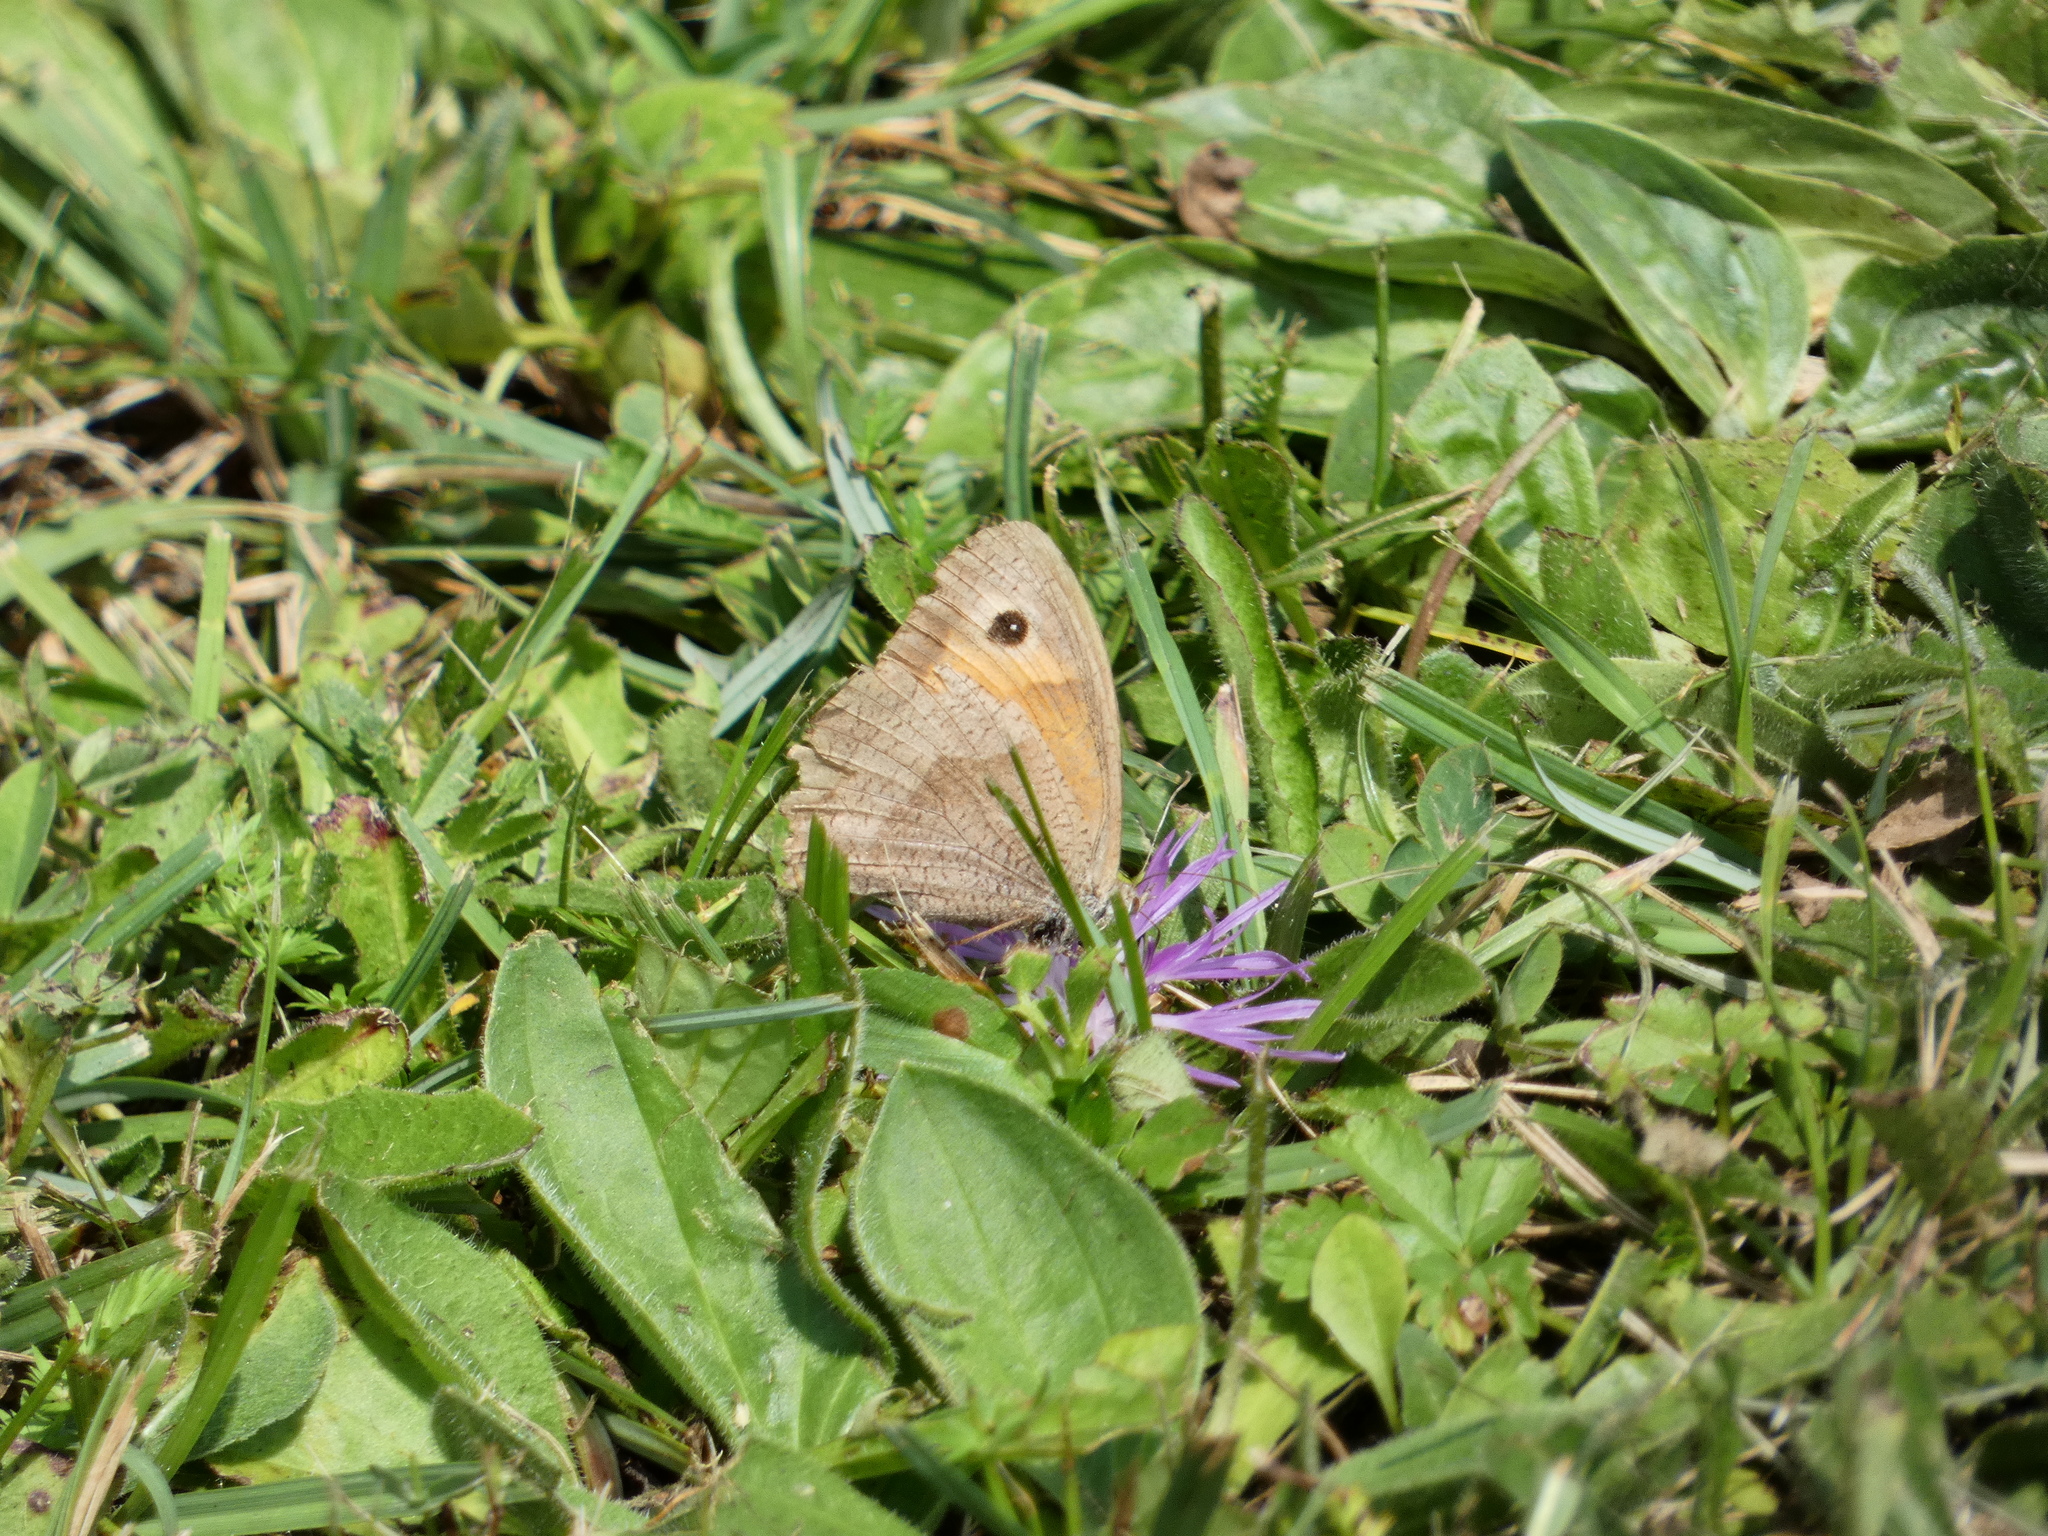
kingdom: Animalia
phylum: Arthropoda
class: Insecta
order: Lepidoptera
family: Nymphalidae
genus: Maniola
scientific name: Maniola jurtina
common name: Meadow brown
